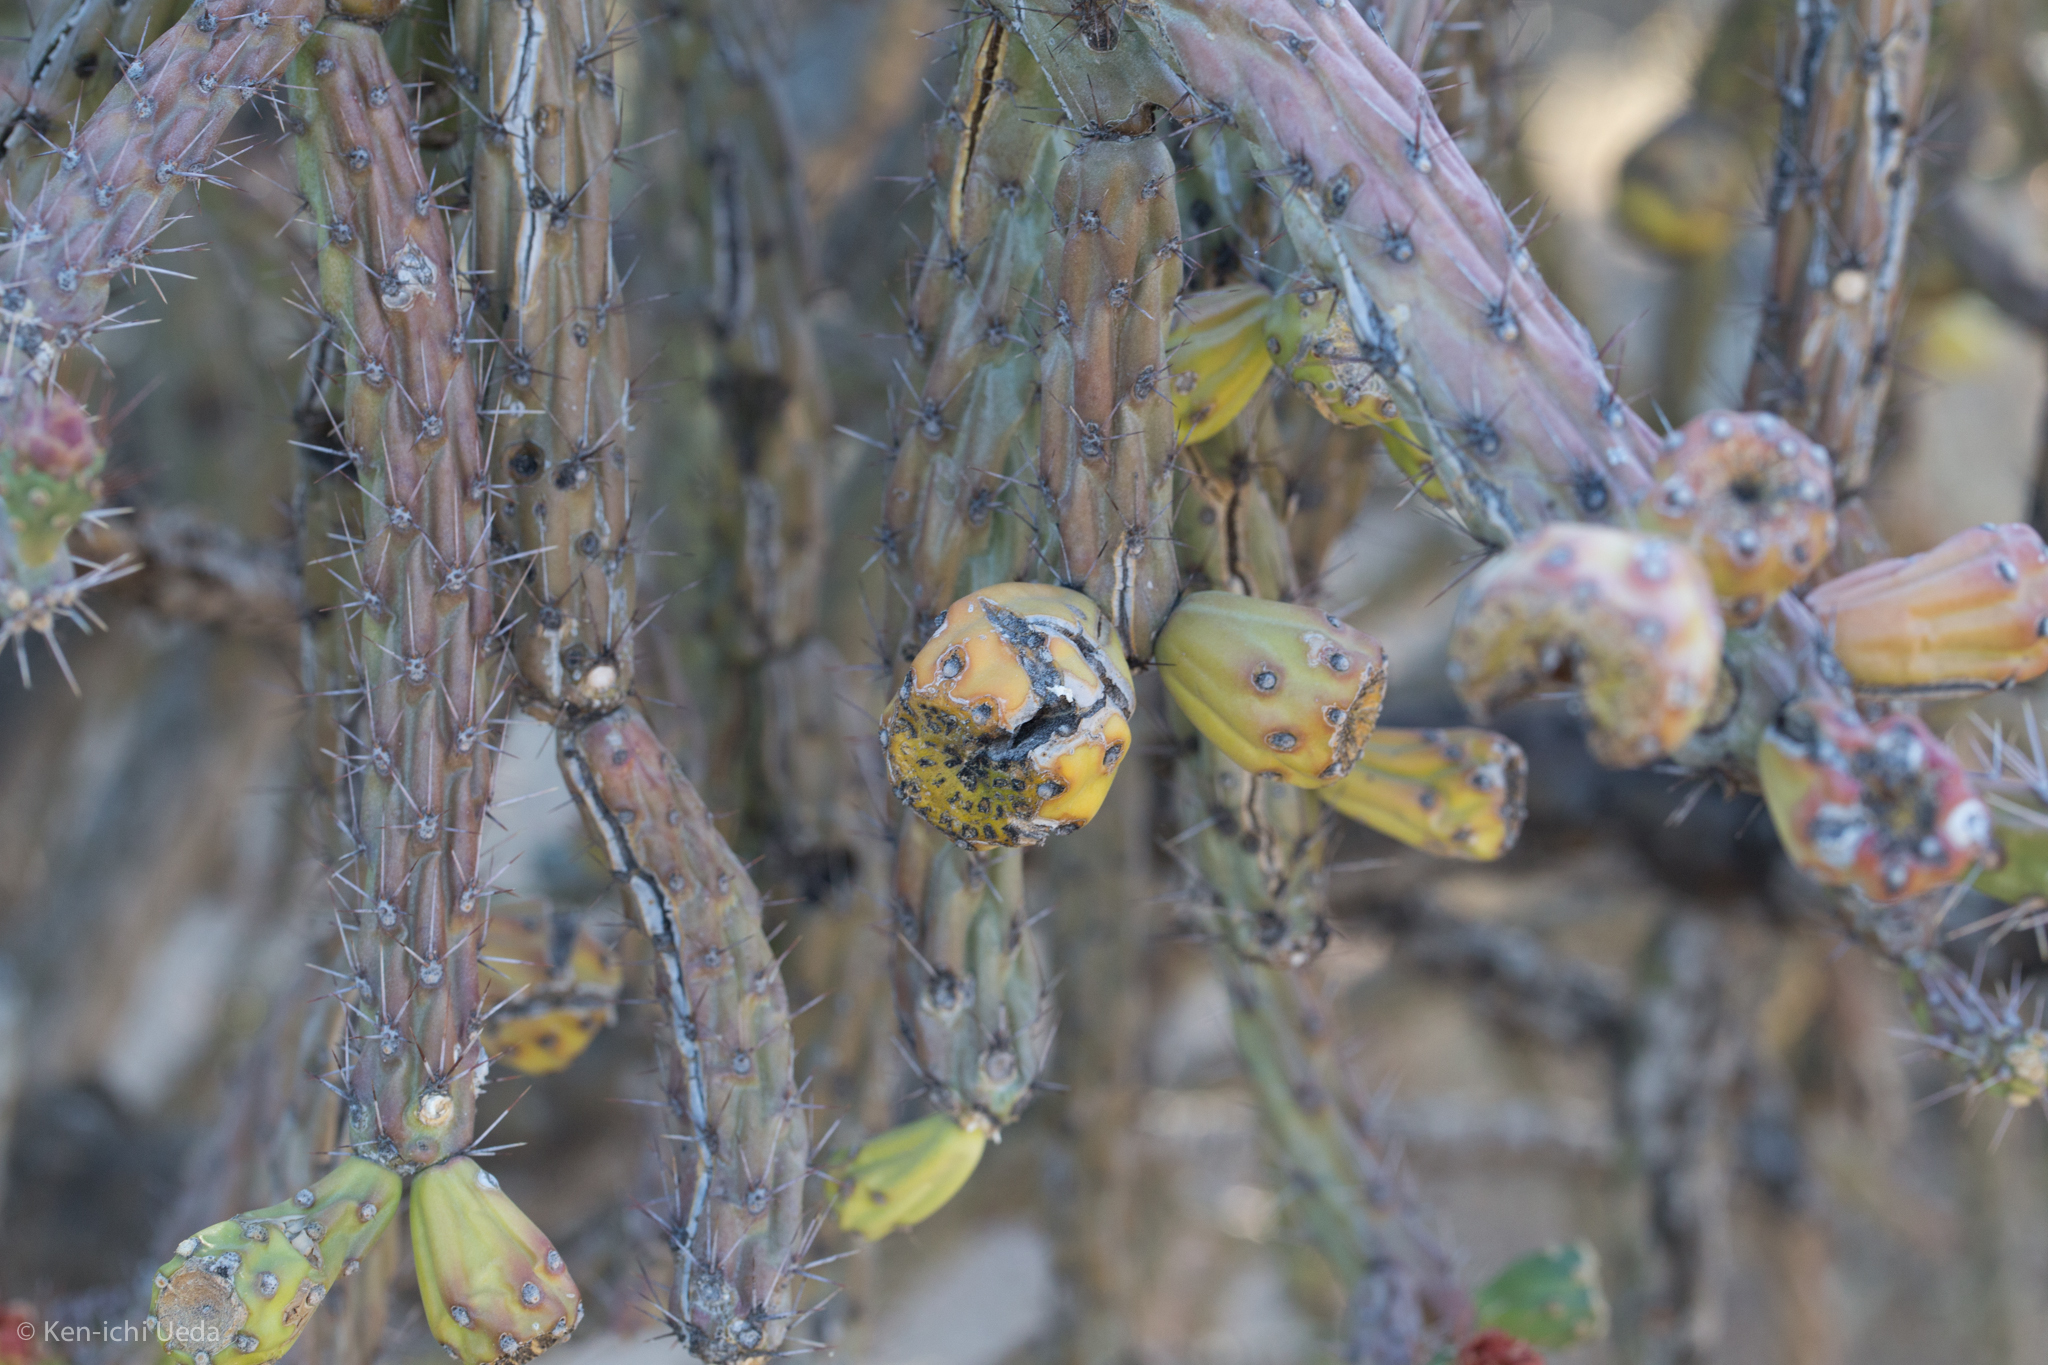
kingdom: Plantae
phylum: Tracheophyta
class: Magnoliopsida
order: Caryophyllales
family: Cactaceae
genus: Cylindropuntia
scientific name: Cylindropuntia thurberi
